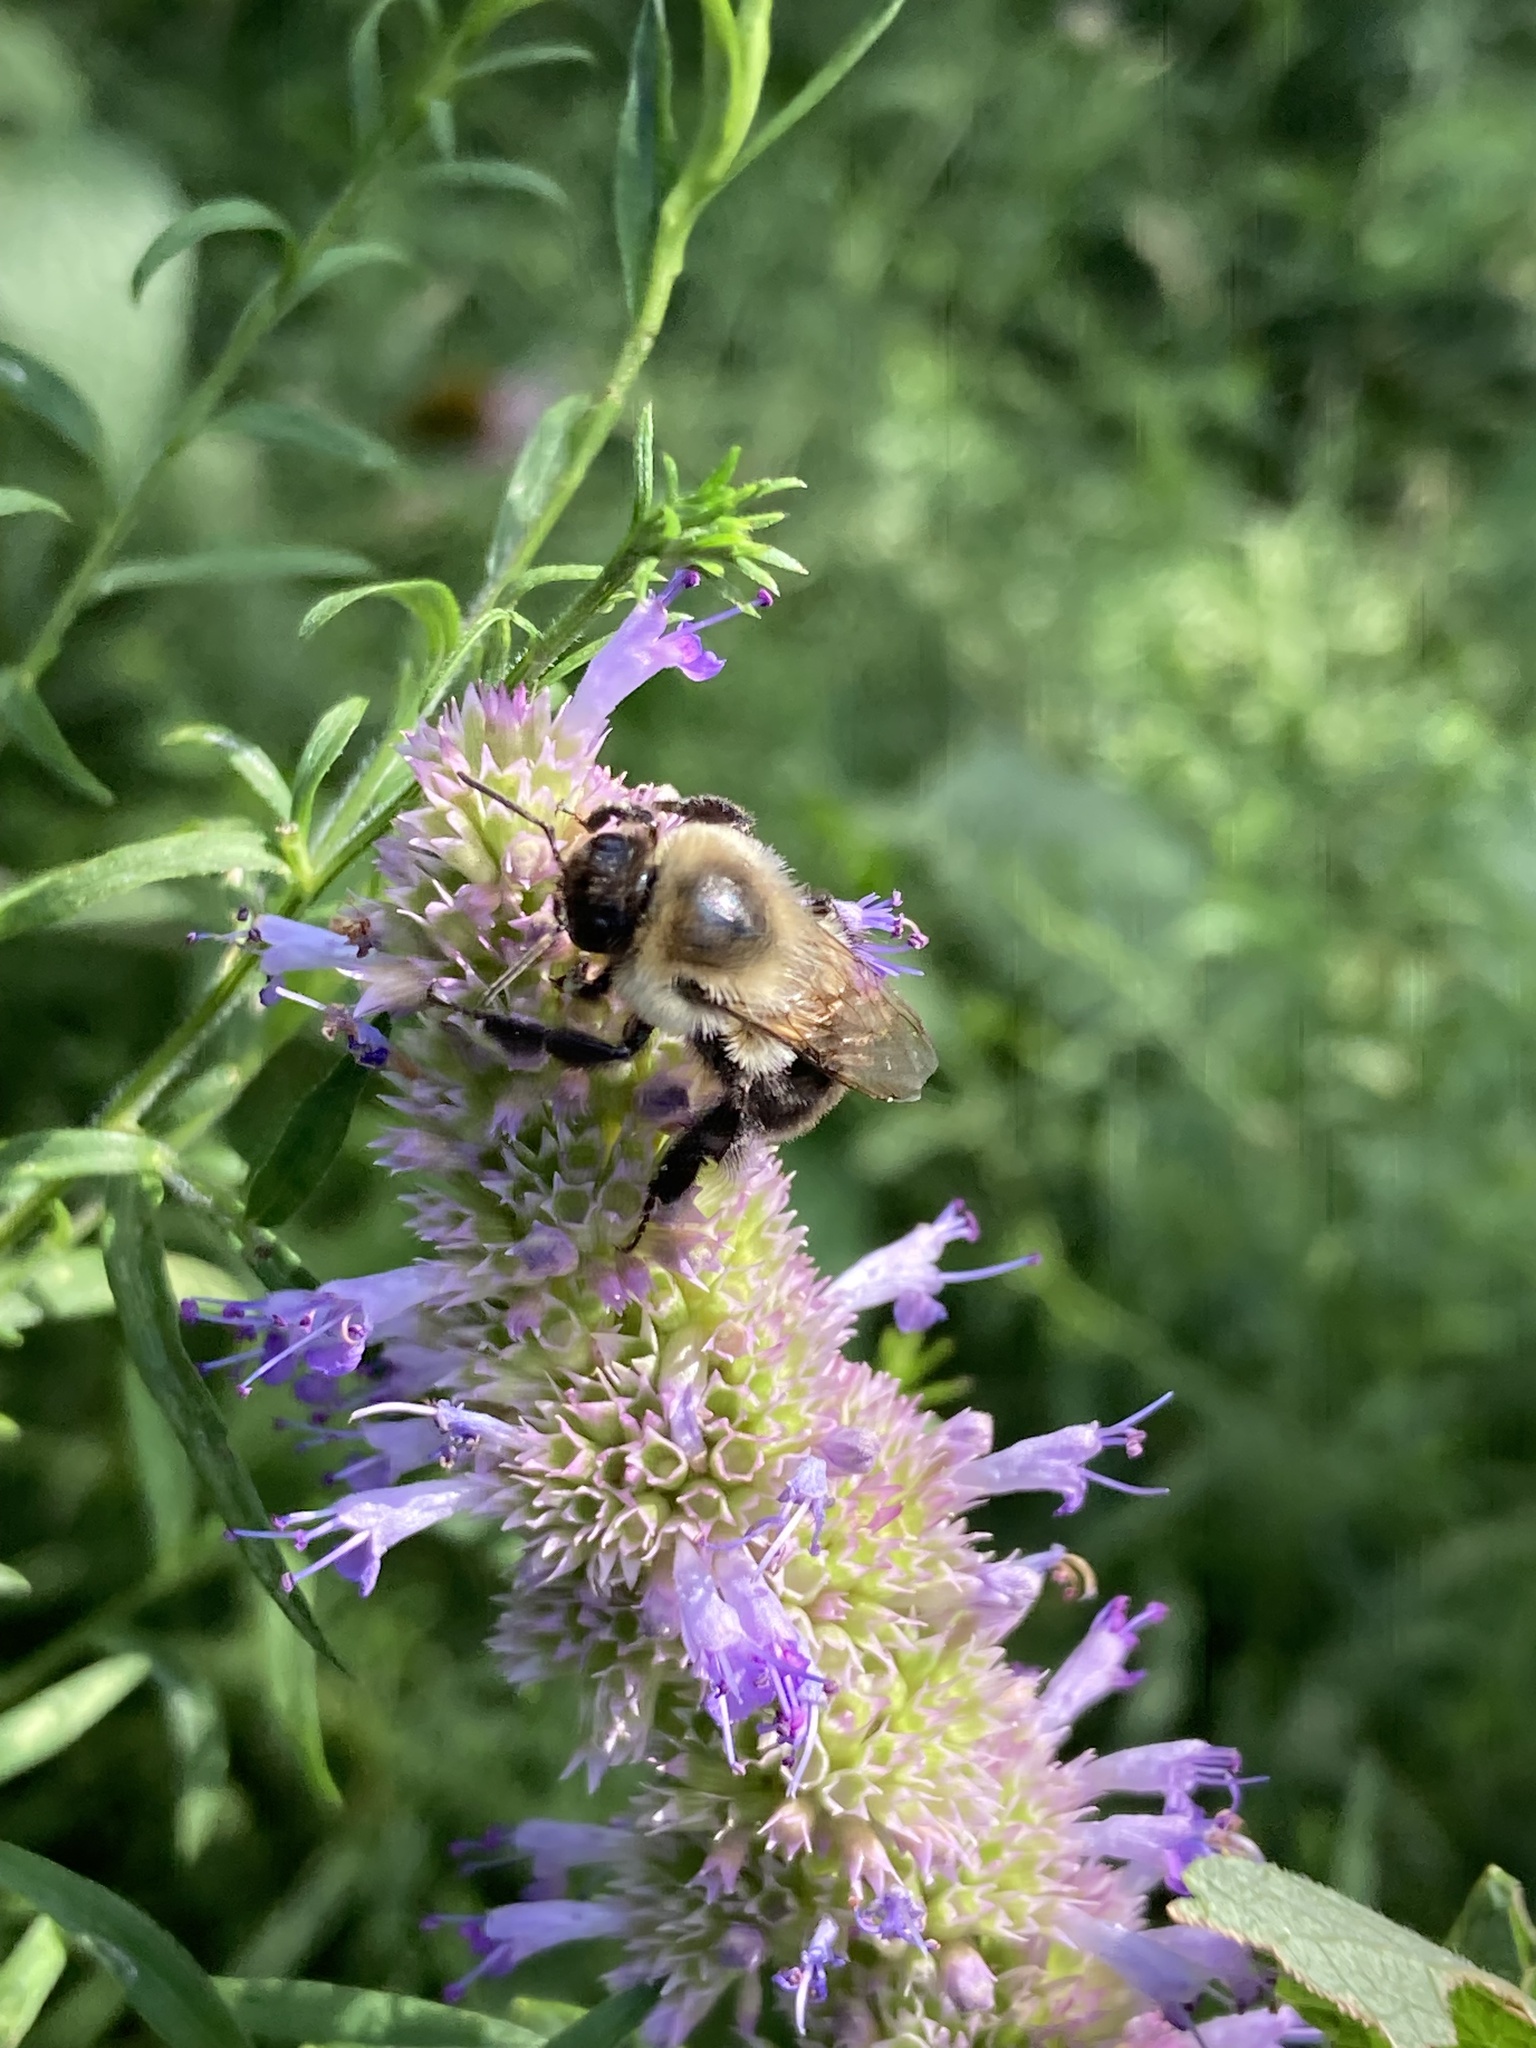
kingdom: Animalia
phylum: Arthropoda
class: Insecta
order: Hymenoptera
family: Apidae
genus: Bombus
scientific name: Bombus impatiens
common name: Common eastern bumble bee
